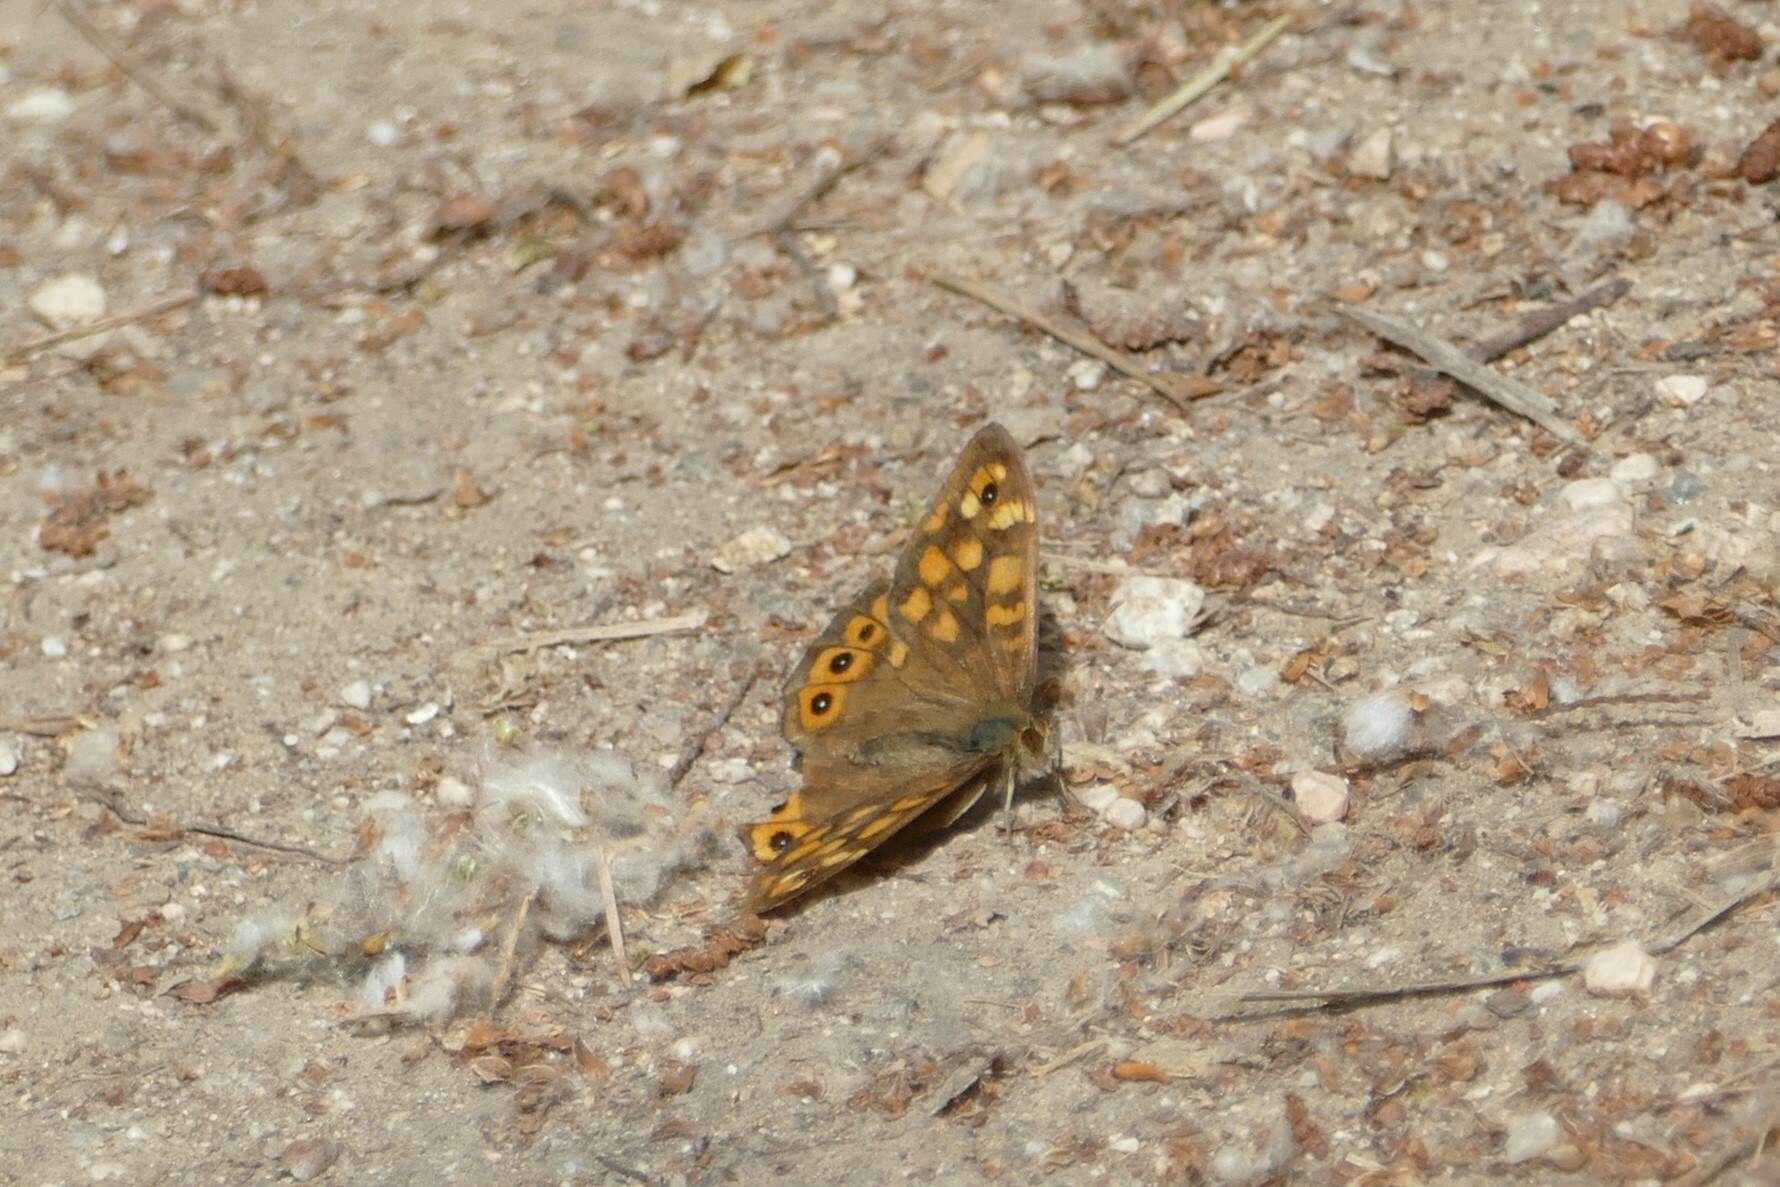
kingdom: Animalia
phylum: Arthropoda
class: Insecta
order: Lepidoptera
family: Nymphalidae
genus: Pararge
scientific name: Pararge aegeria
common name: Speckled wood
